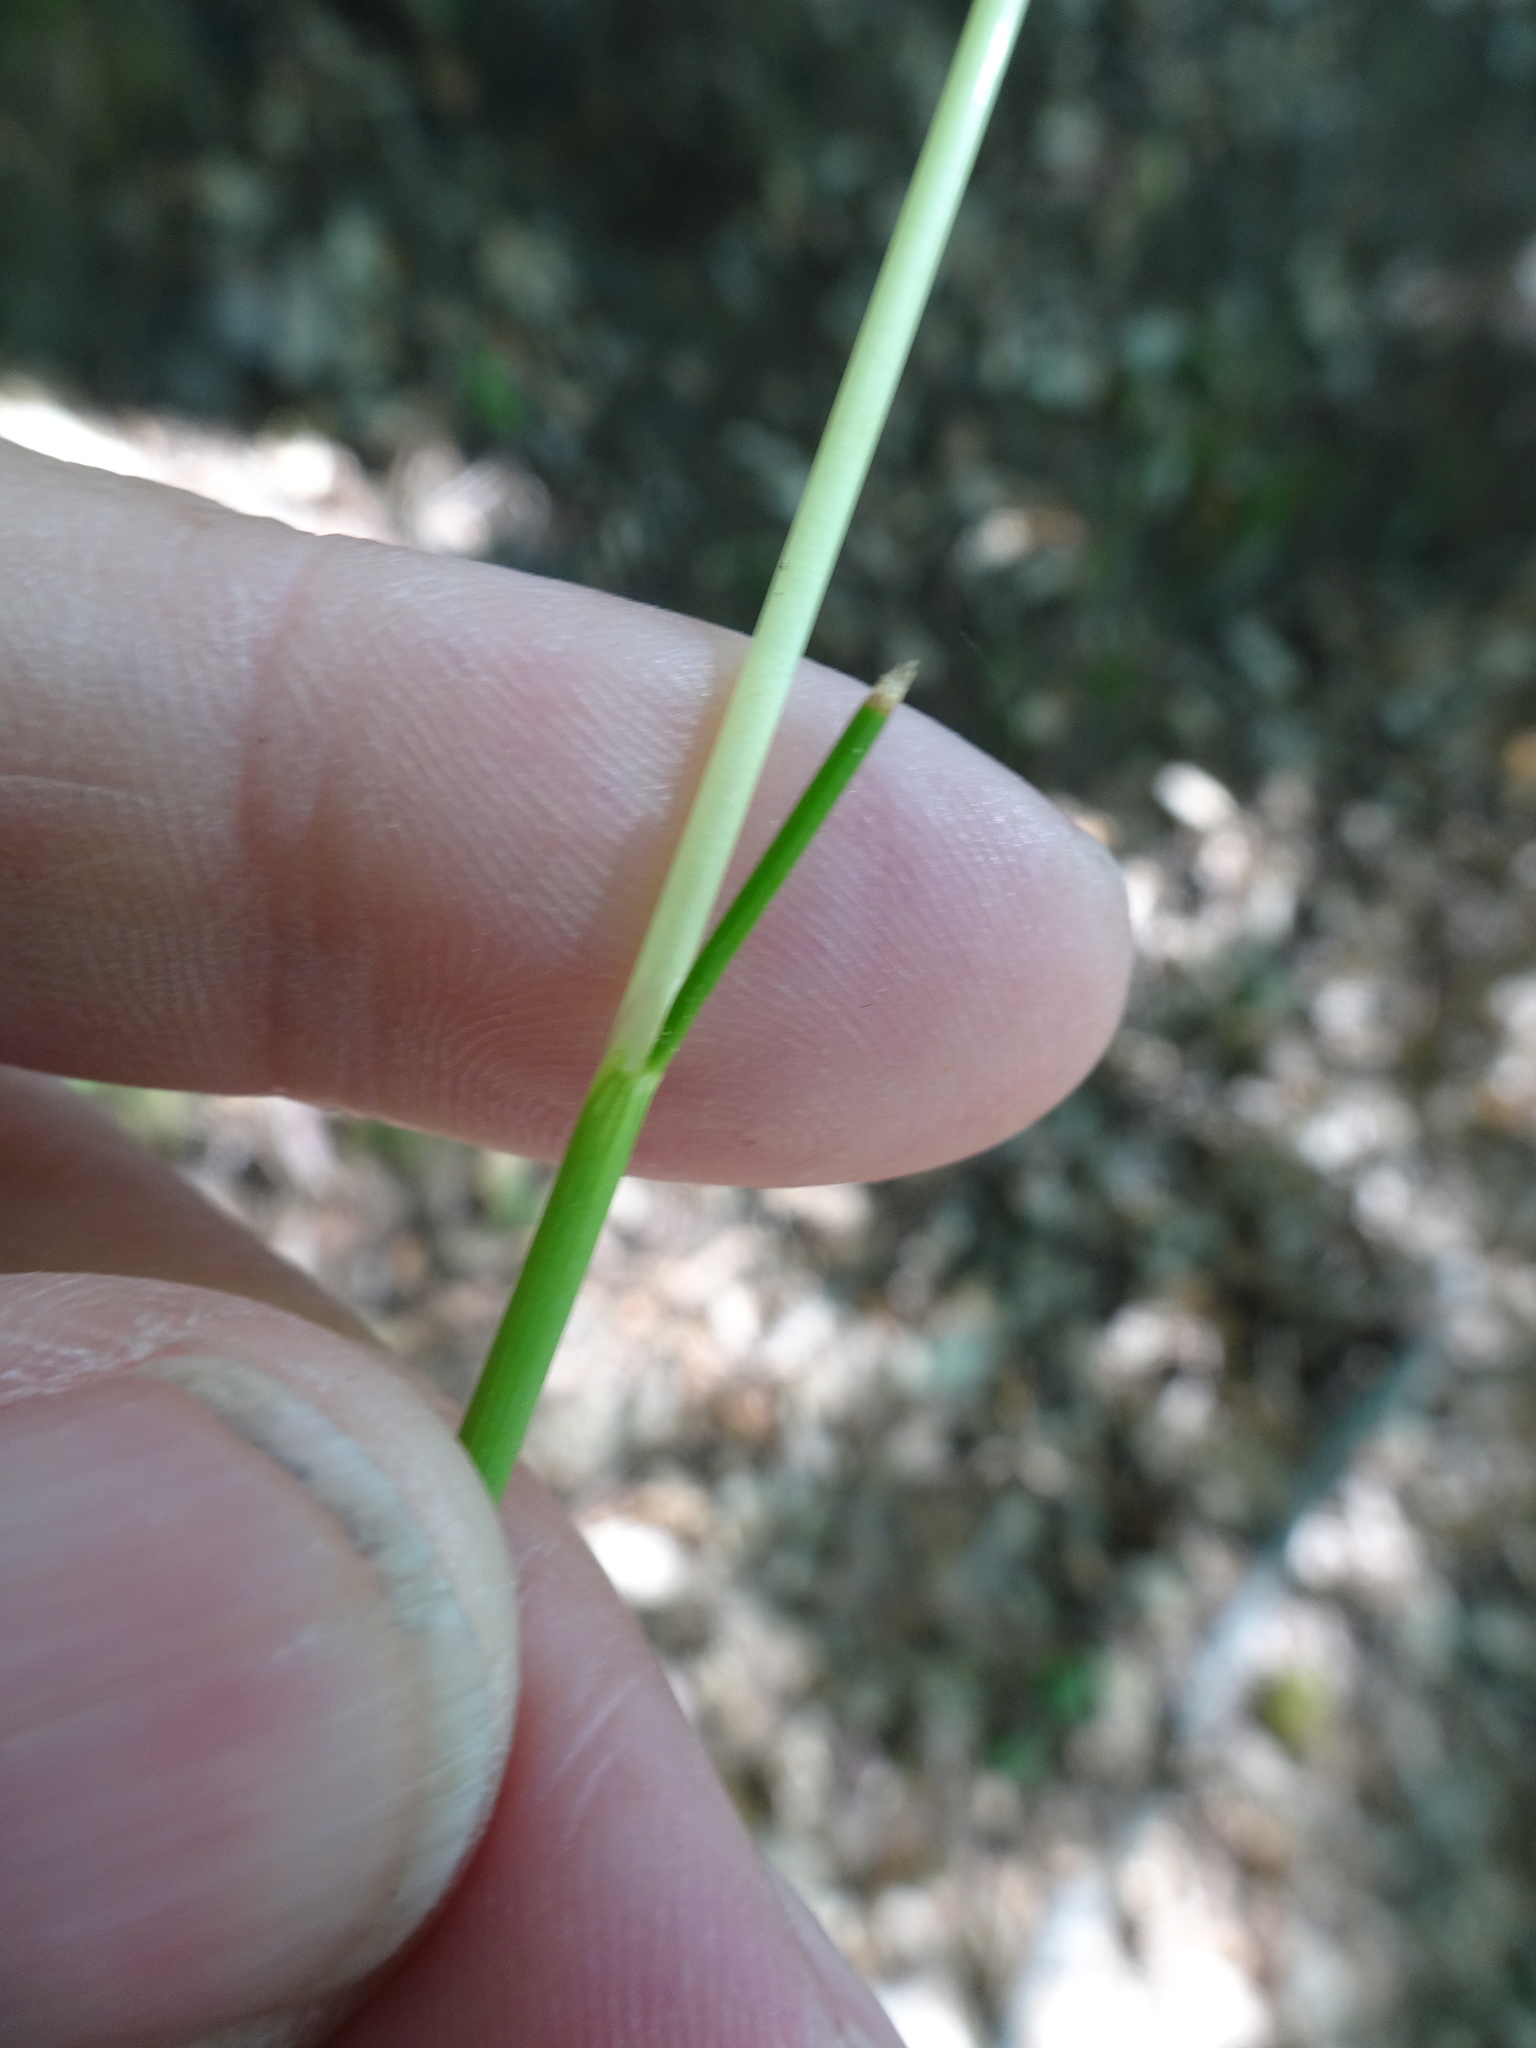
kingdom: Plantae
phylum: Tracheophyta
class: Liliopsida
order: Poales
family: Poaceae
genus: Avenella
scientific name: Avenella flexuosa
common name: Wavy hairgrass
